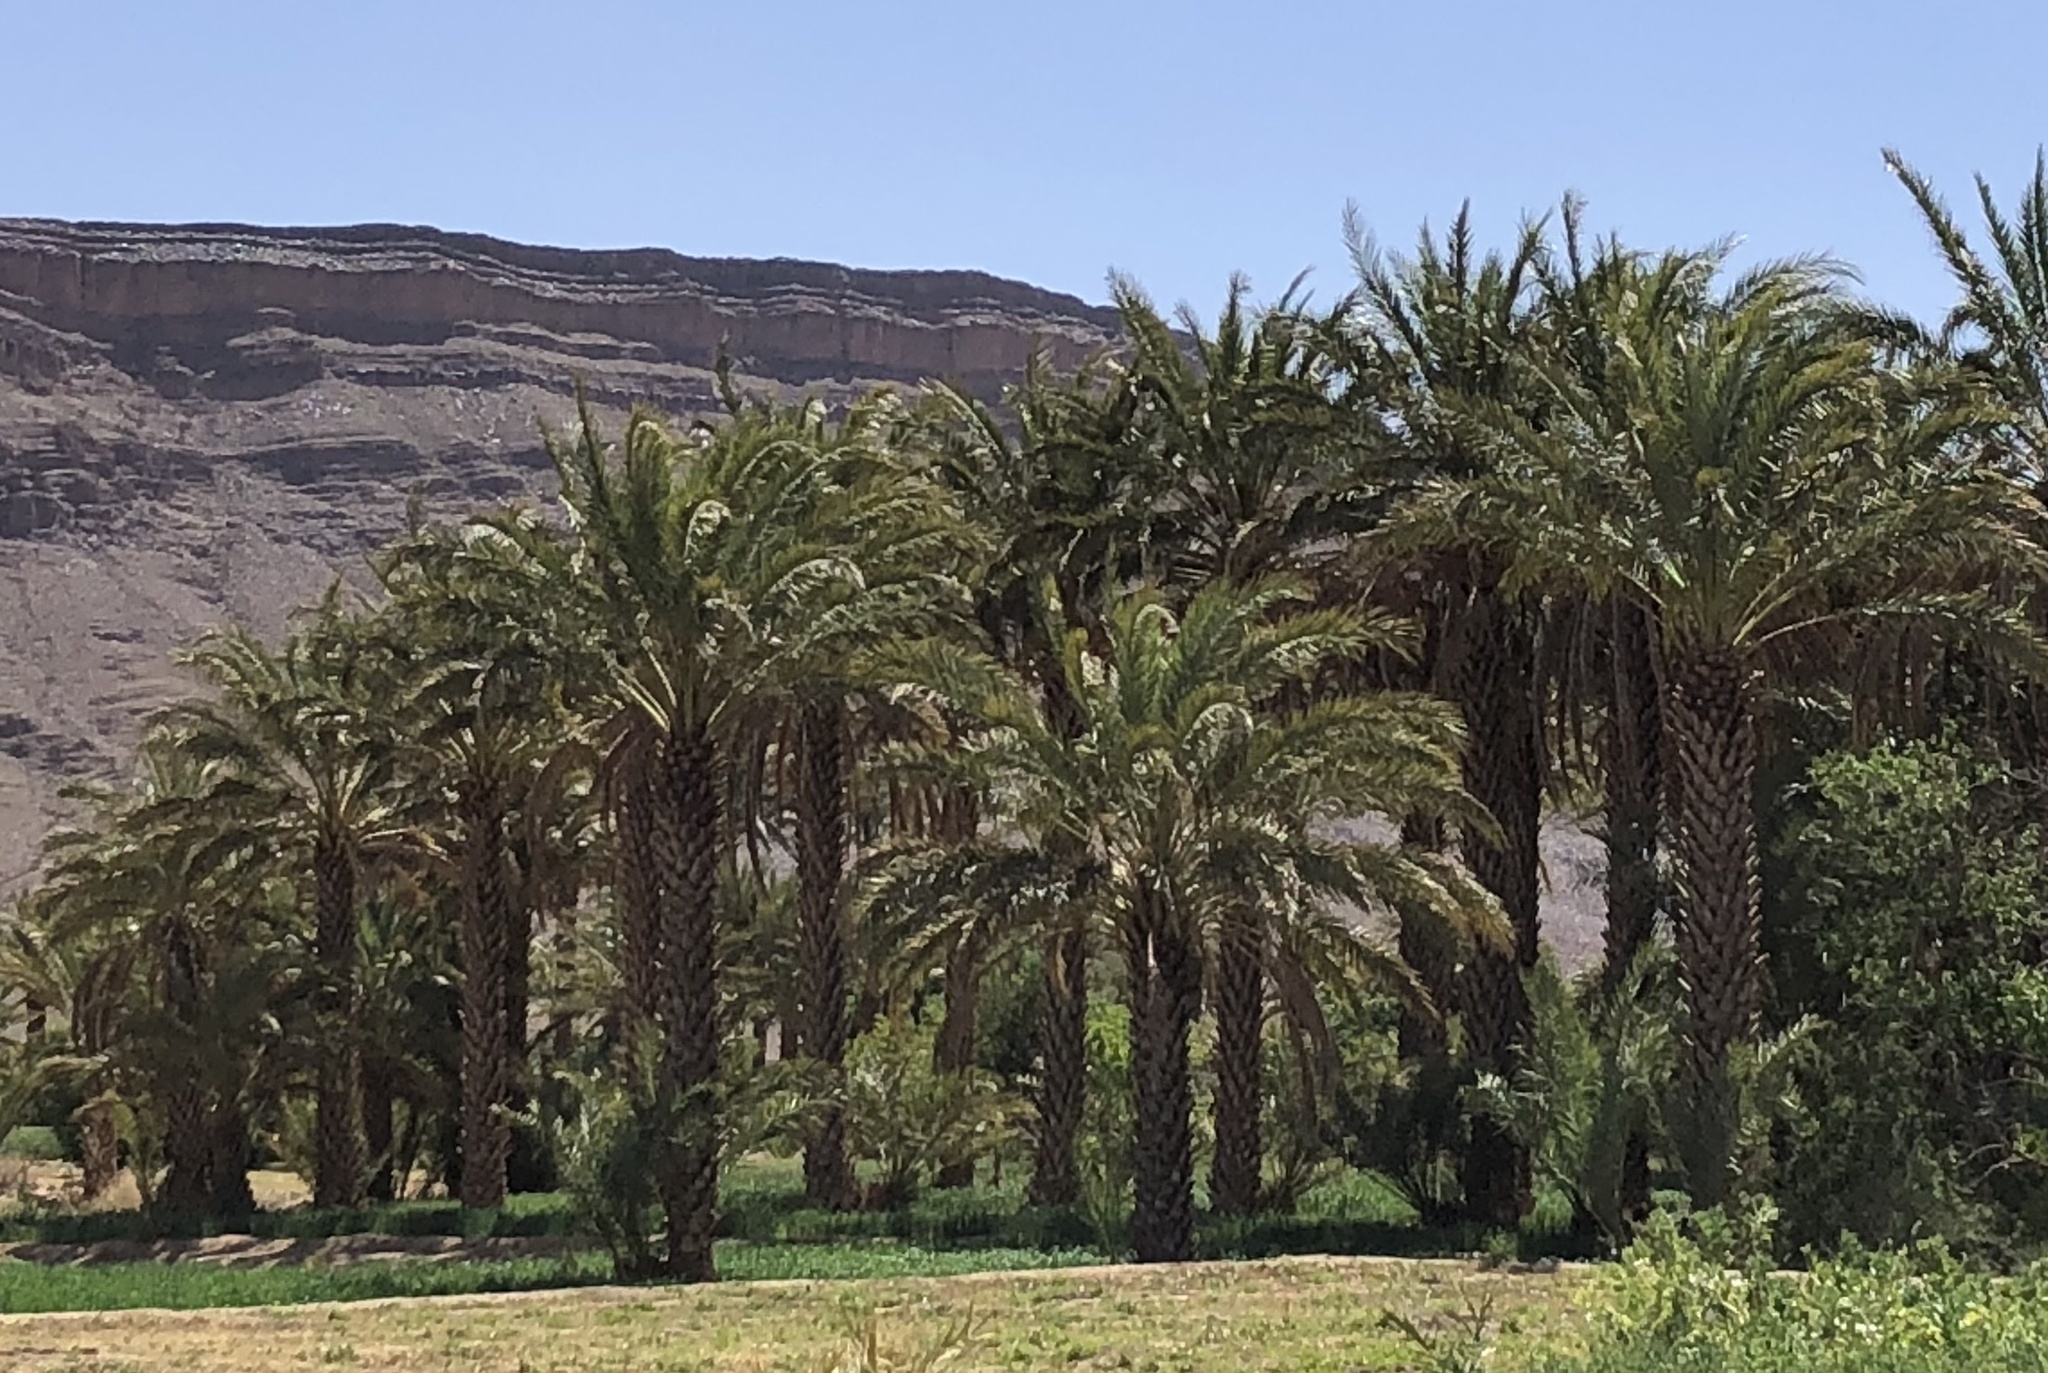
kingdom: Plantae
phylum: Tracheophyta
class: Liliopsida
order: Arecales
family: Arecaceae
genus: Phoenix
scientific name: Phoenix dactylifera
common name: Date palm
